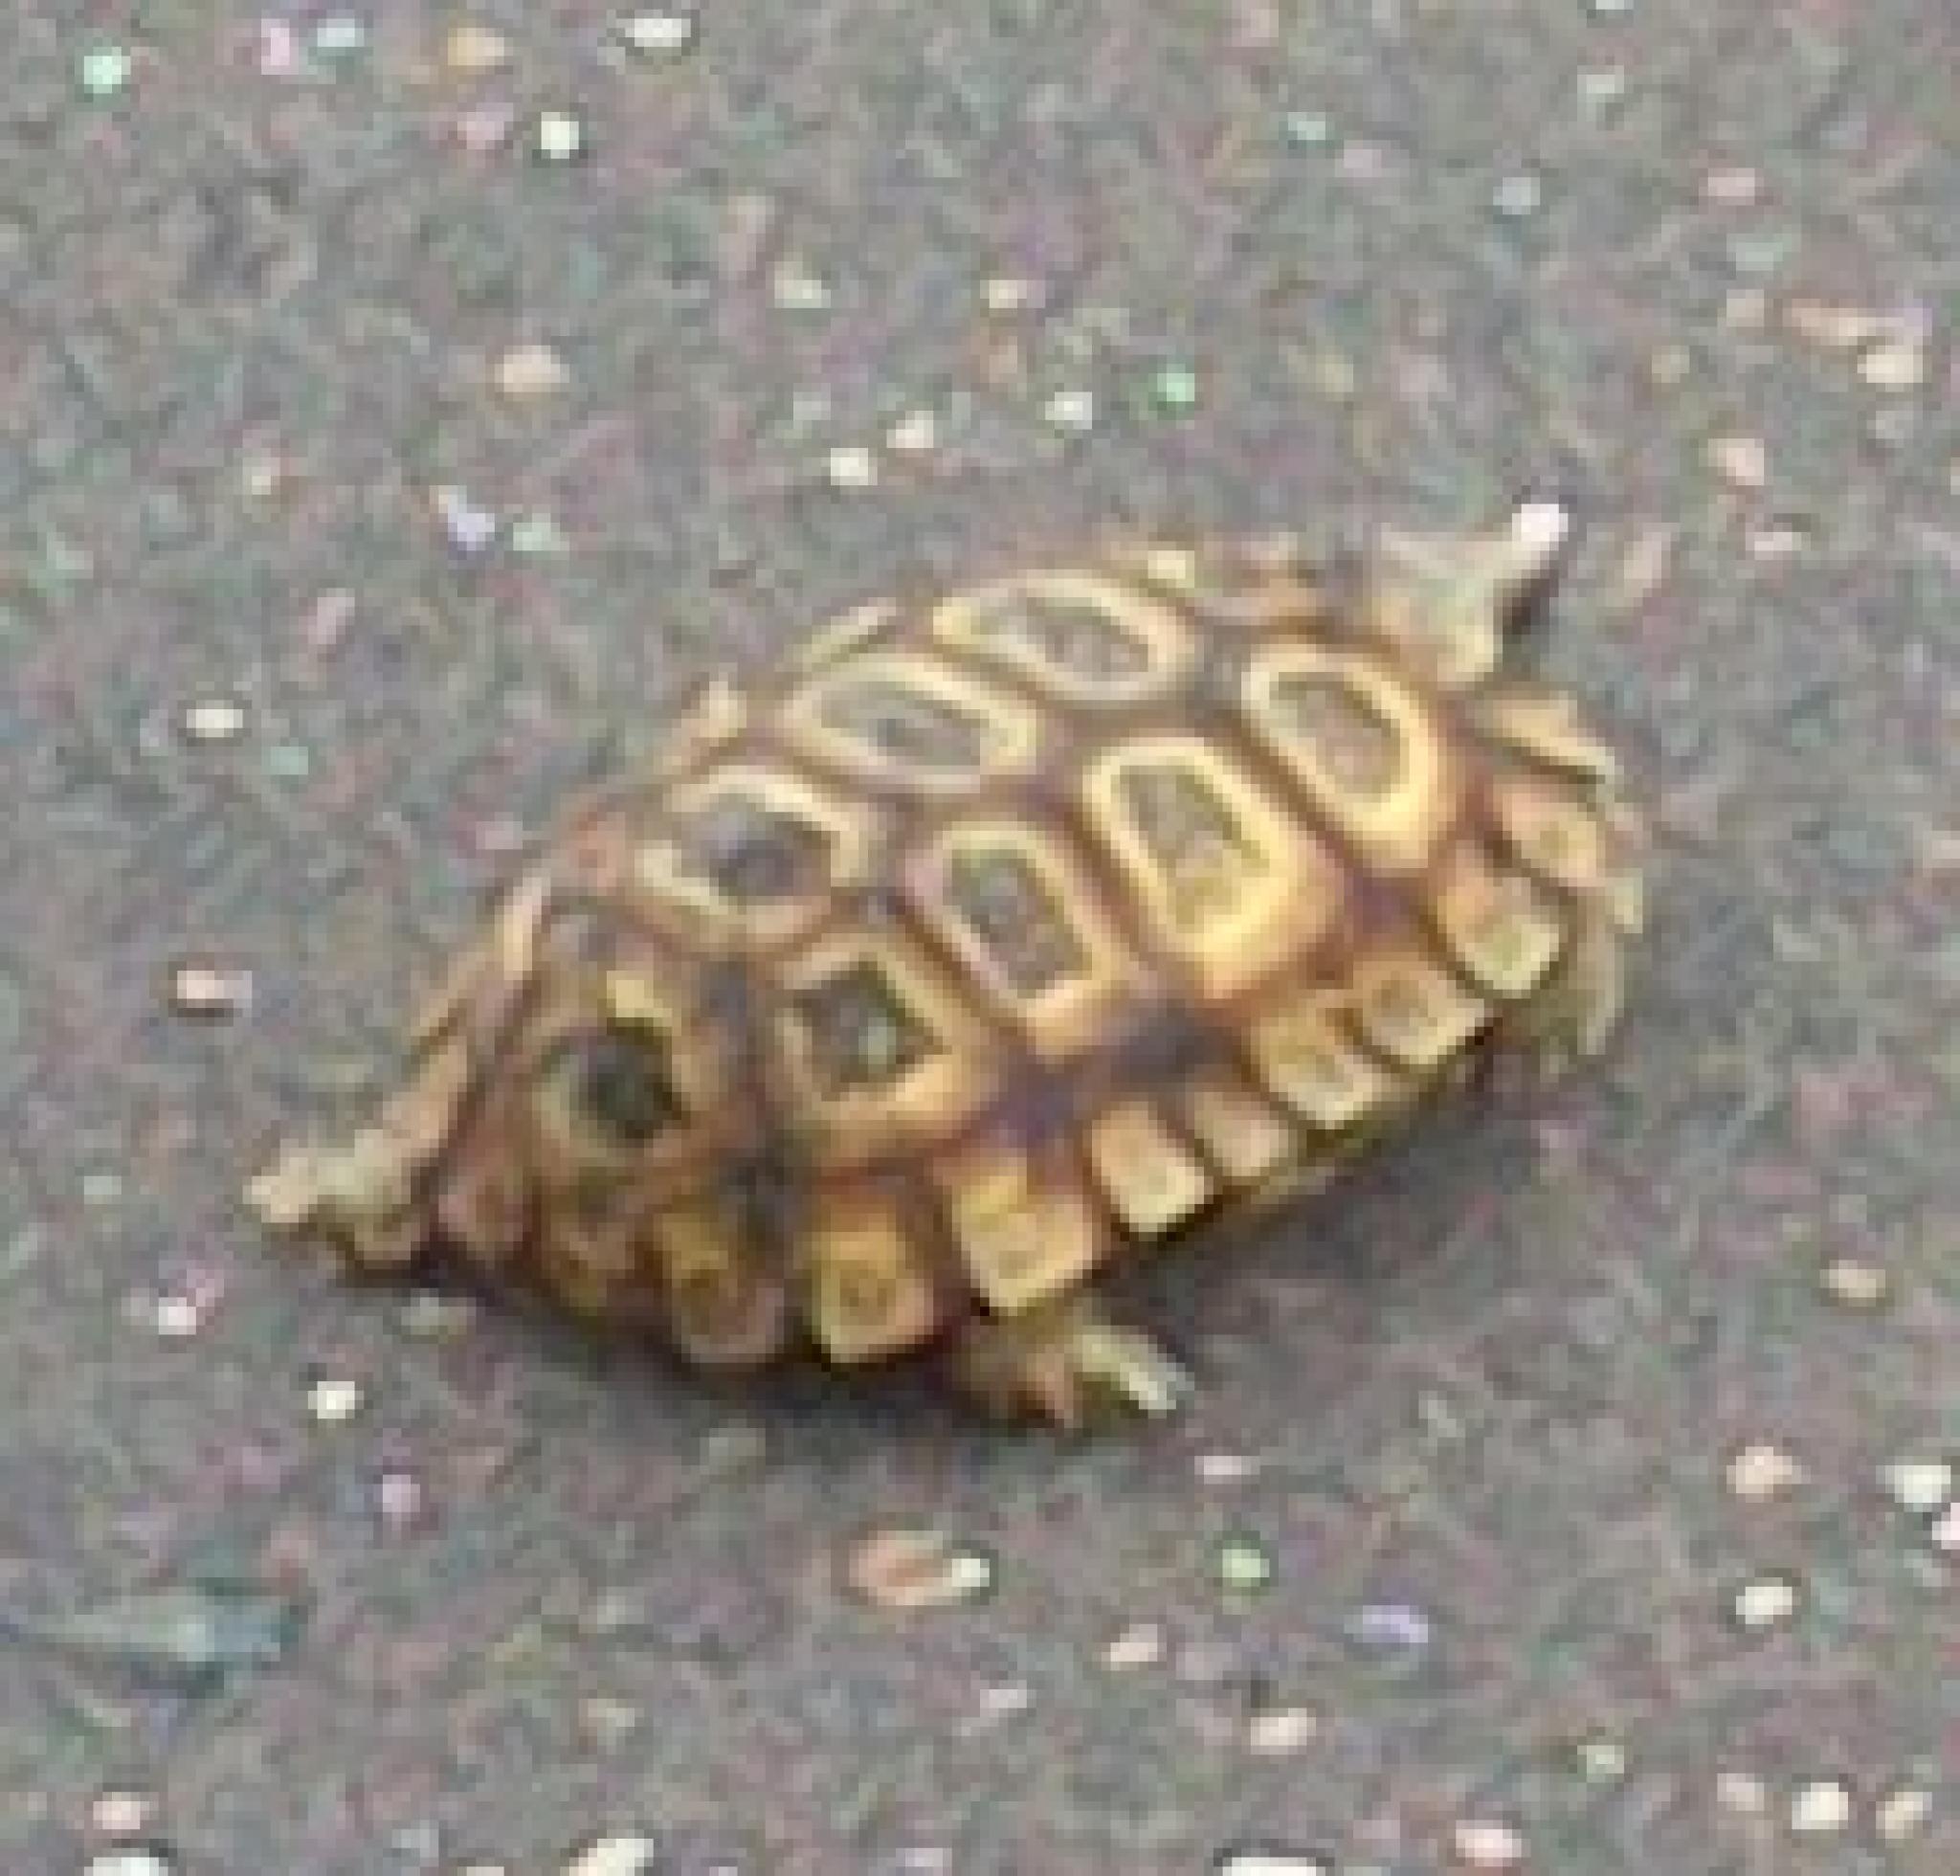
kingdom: Animalia
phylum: Chordata
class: Testudines
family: Testudinidae
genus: Kinixys
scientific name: Kinixys spekii
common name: Speke's hingeback tortoise
